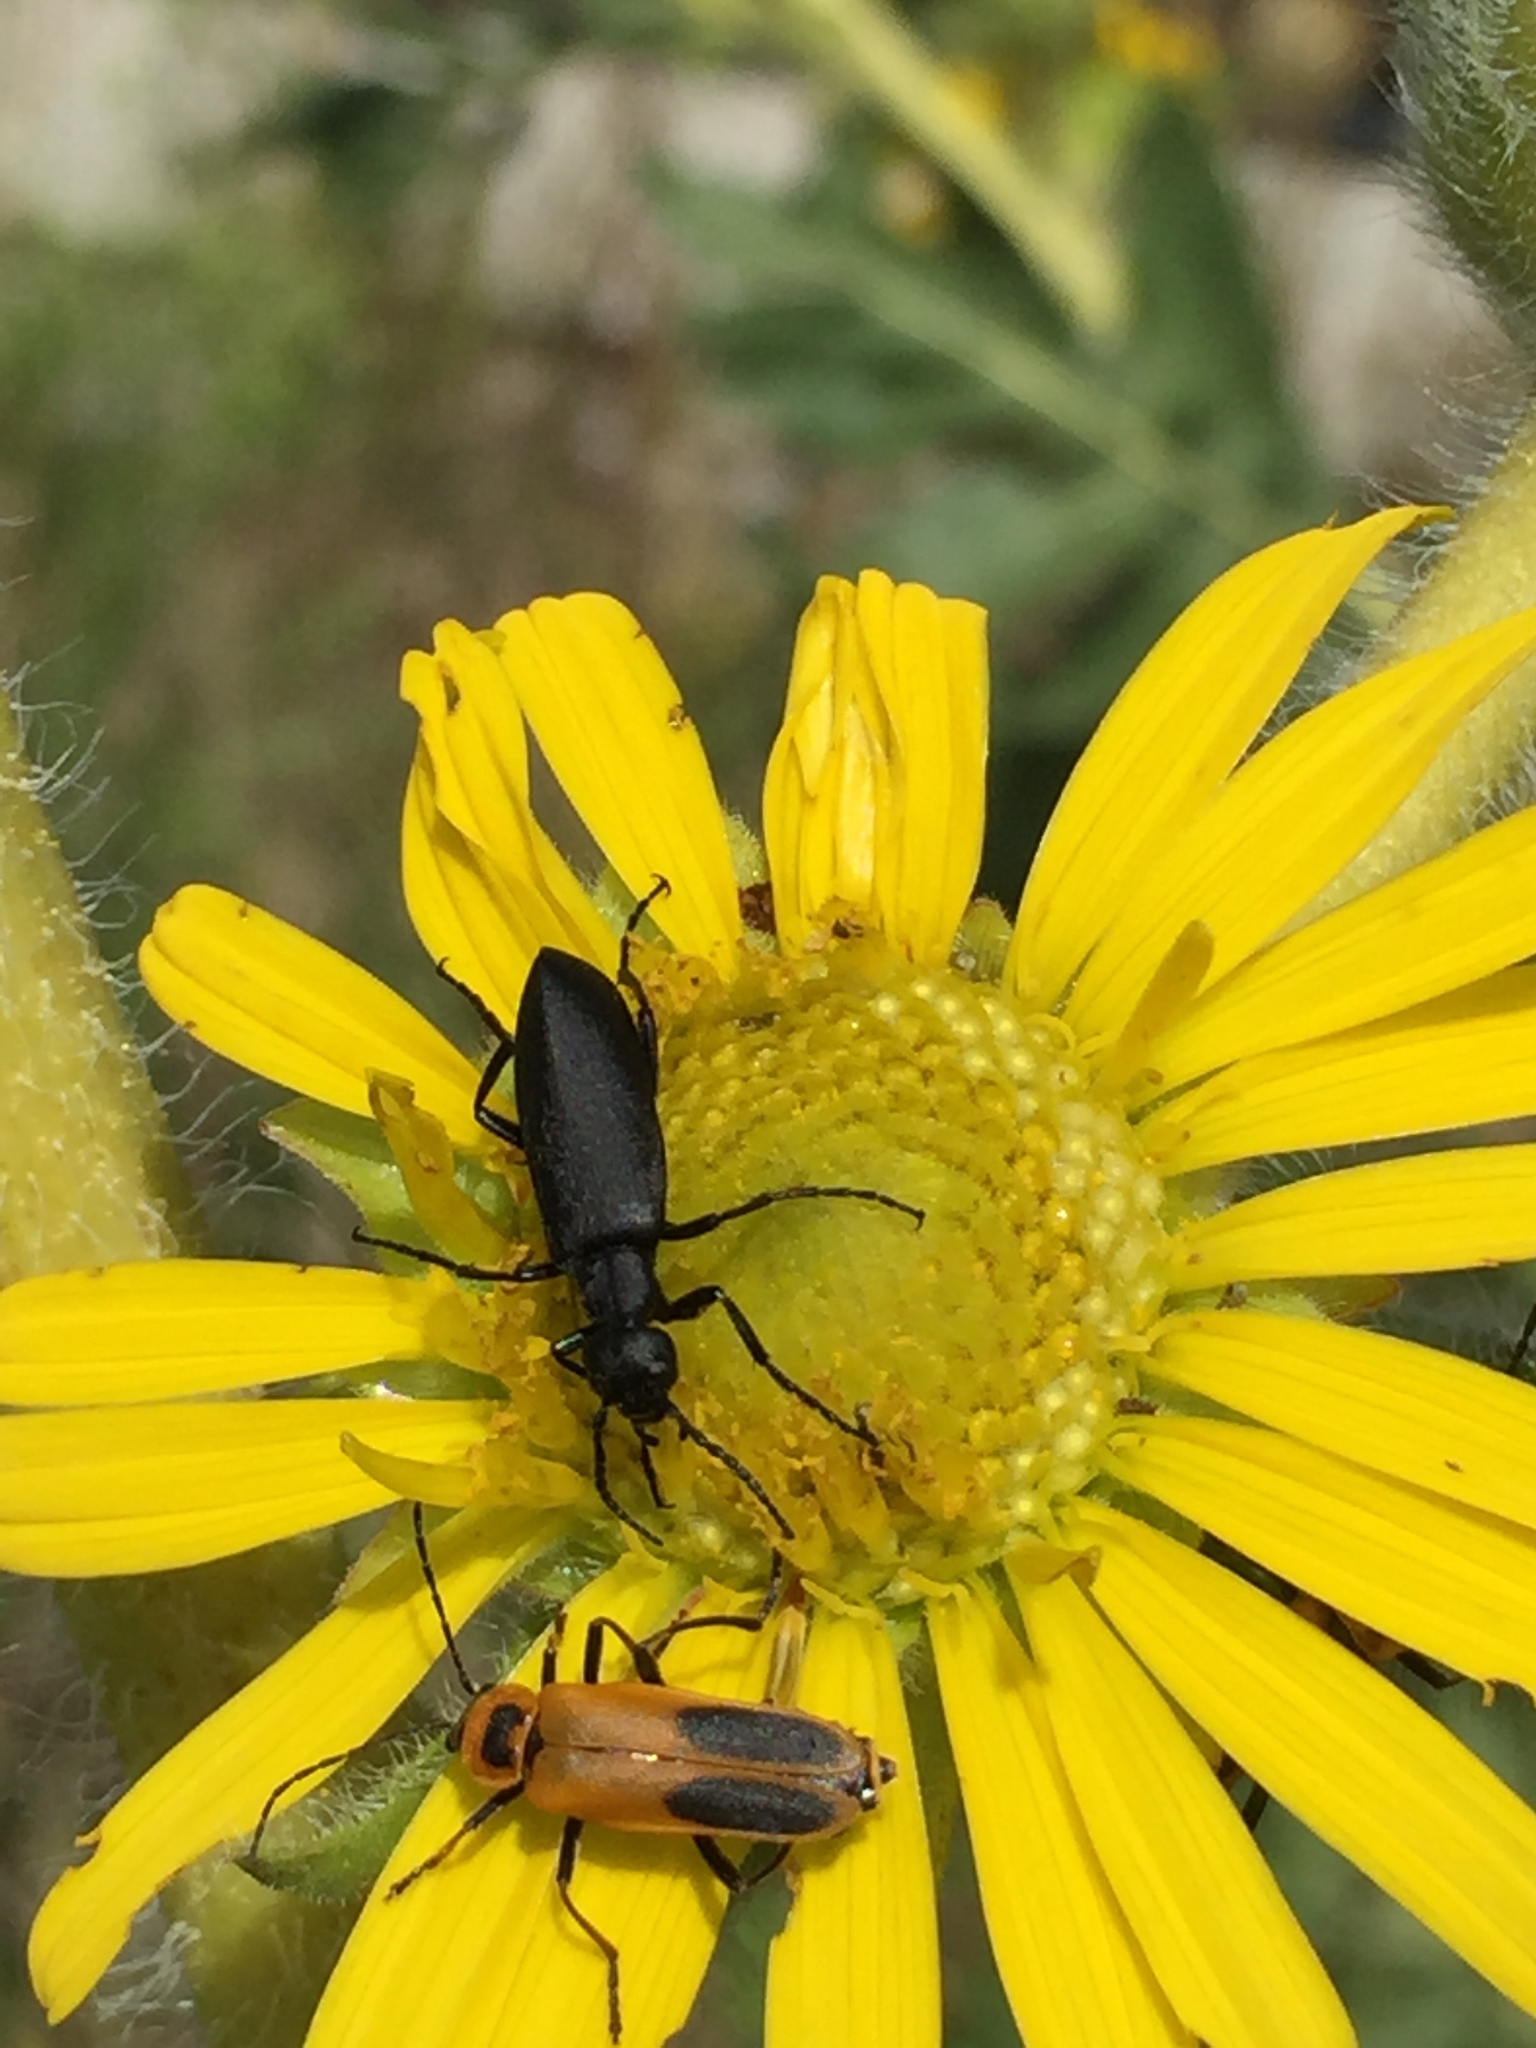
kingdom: Animalia
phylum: Arthropoda
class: Insecta
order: Coleoptera
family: Cantharidae
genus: Chauliognathus
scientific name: Chauliognathus pensylvanicus
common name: Goldenrod soldier beetle
